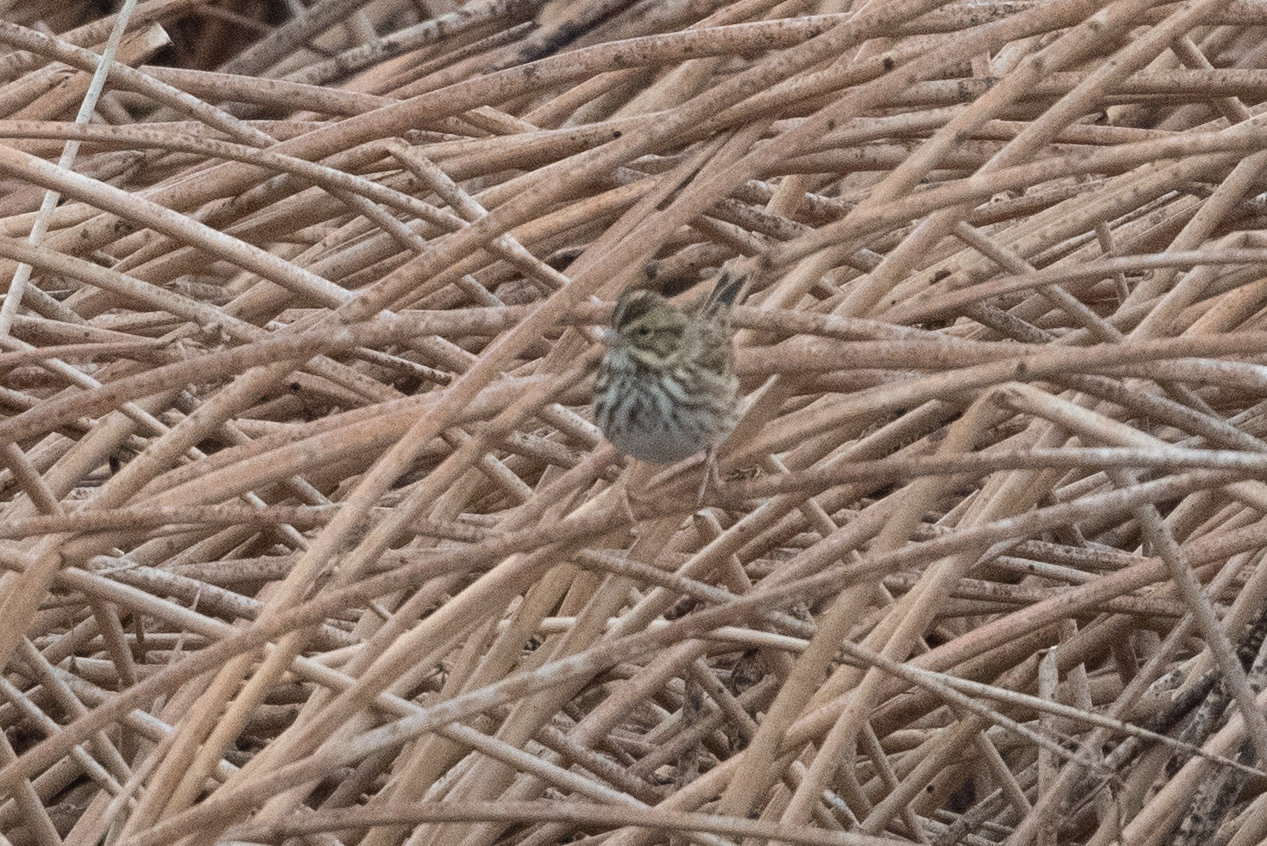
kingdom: Animalia
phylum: Chordata
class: Aves
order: Passeriformes
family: Passerellidae
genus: Passerculus
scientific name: Passerculus sandwichensis
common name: Savannah sparrow
